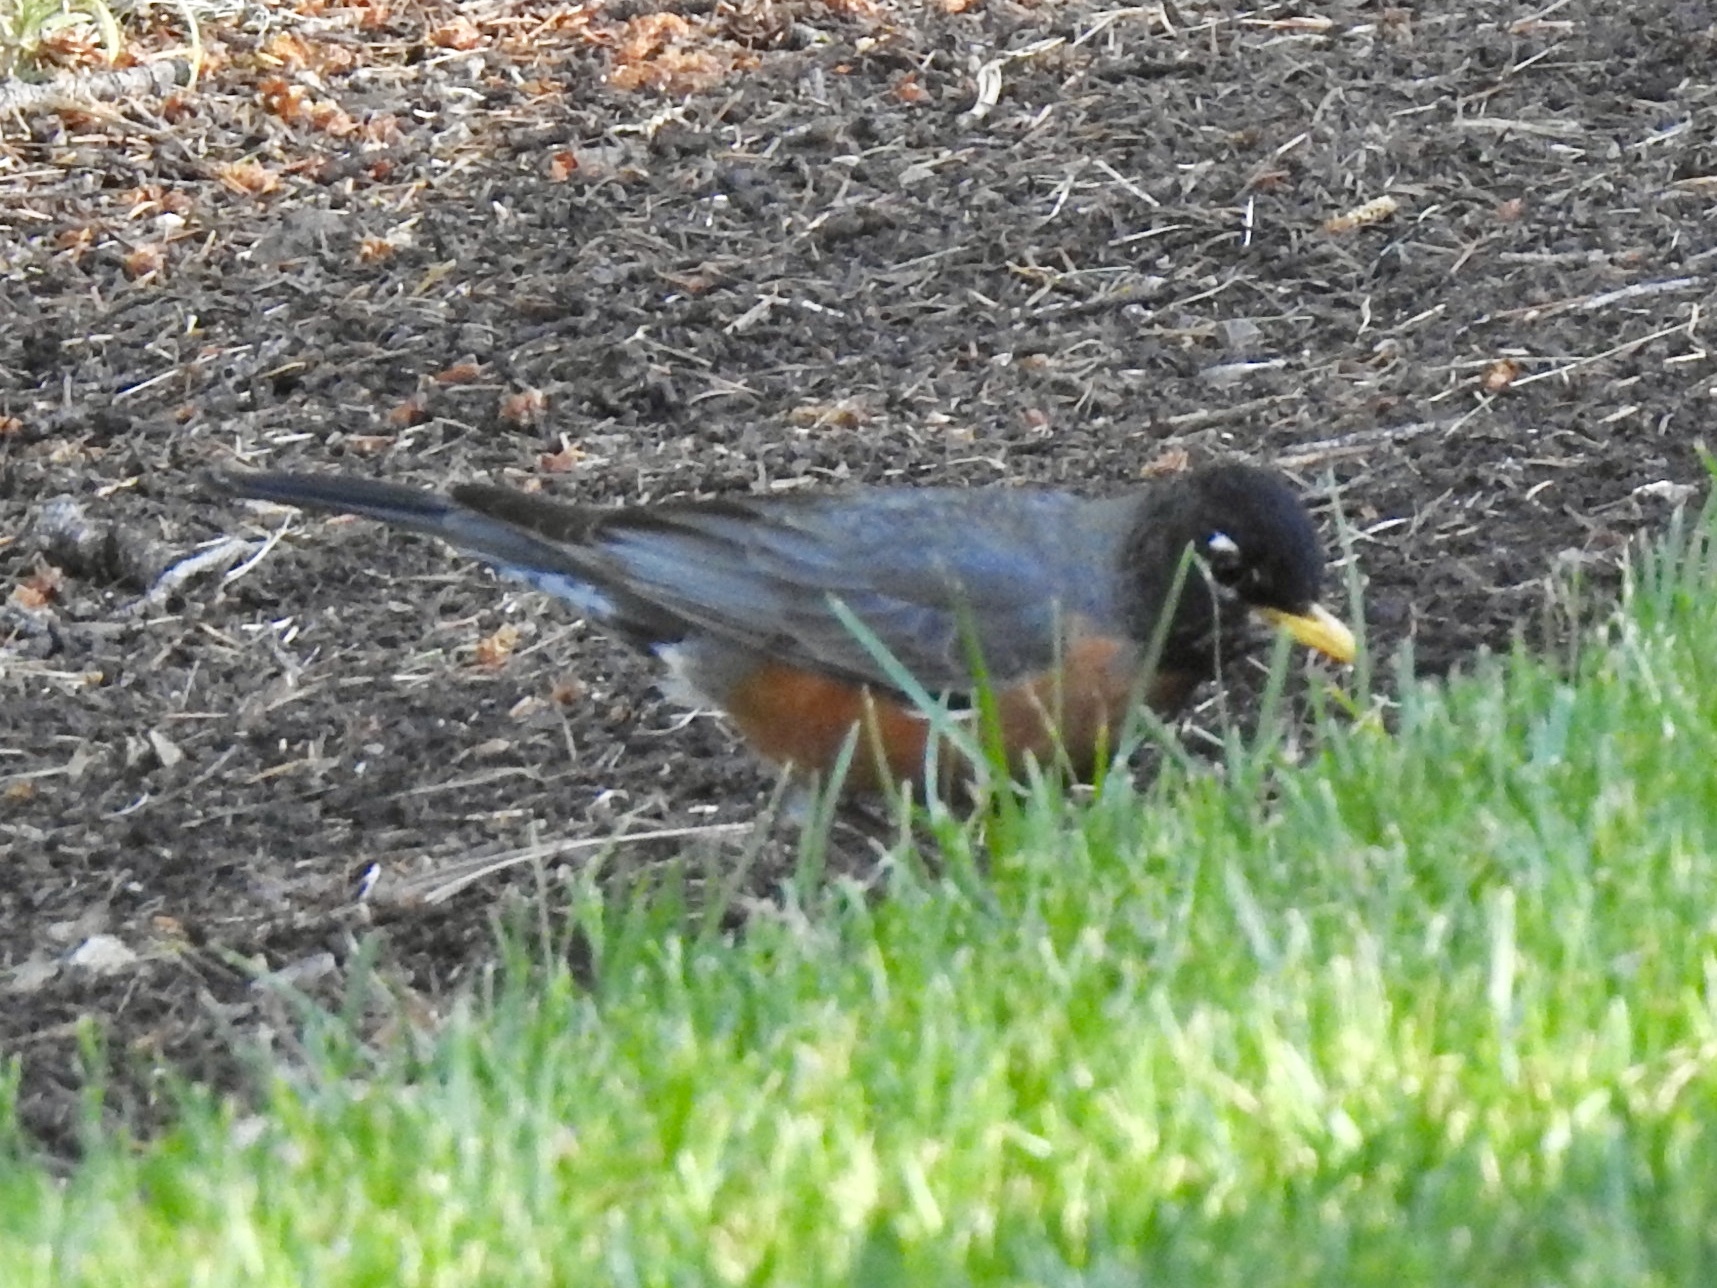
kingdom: Animalia
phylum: Chordata
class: Aves
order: Passeriformes
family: Turdidae
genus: Turdus
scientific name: Turdus migratorius
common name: American robin
